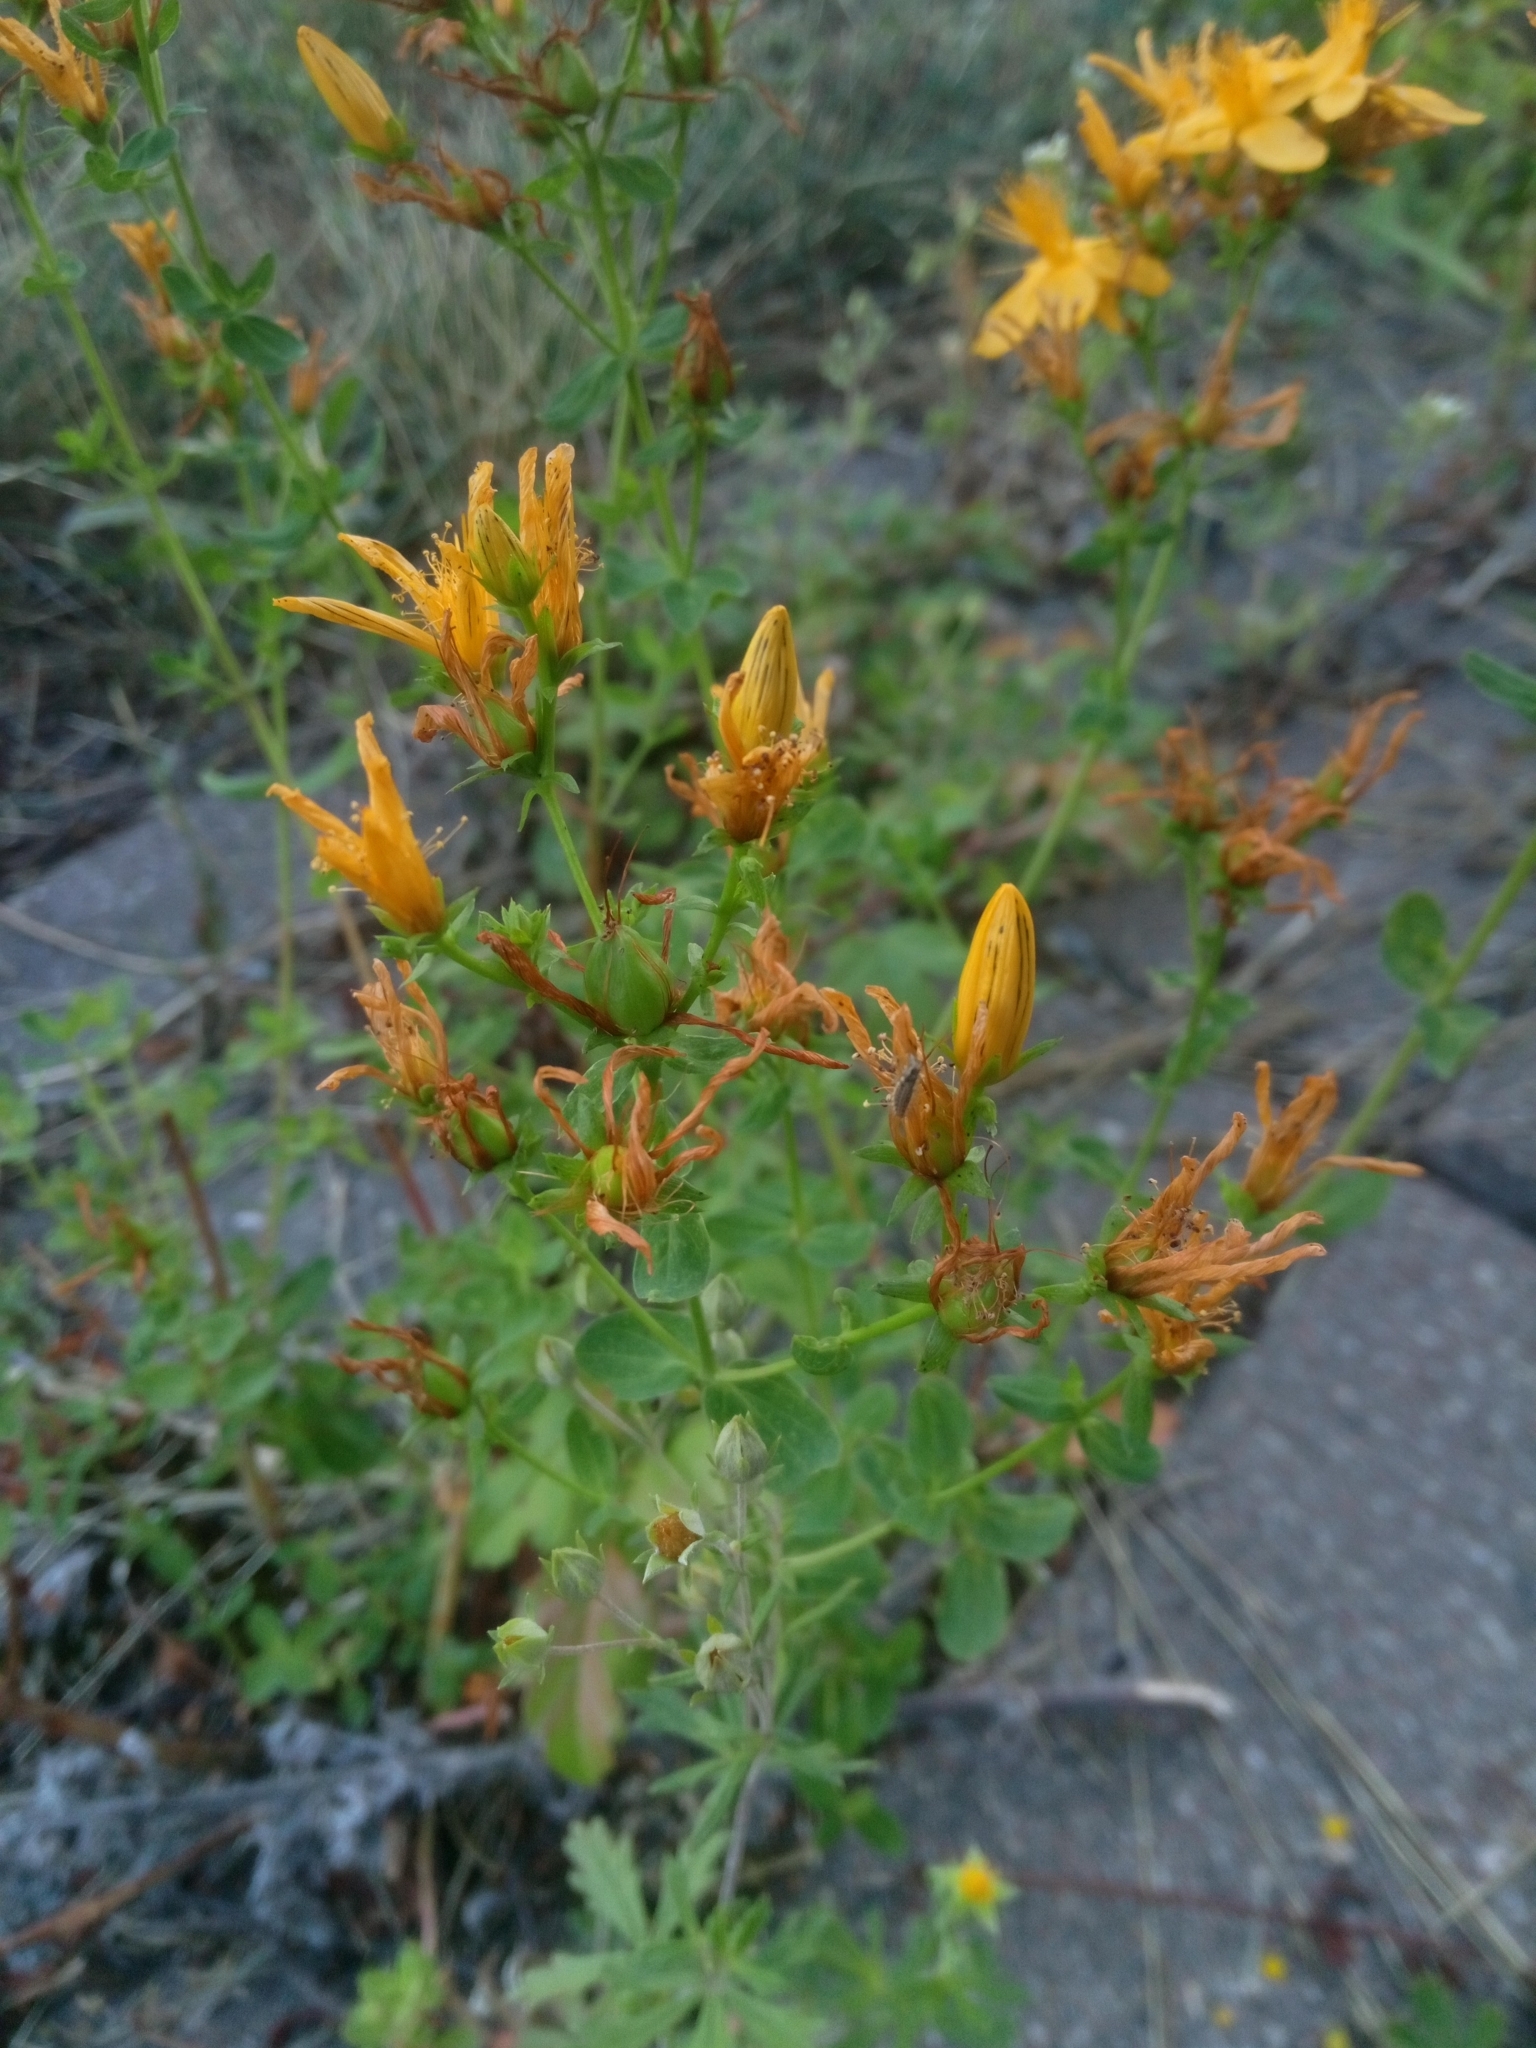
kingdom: Plantae
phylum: Tracheophyta
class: Magnoliopsida
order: Malpighiales
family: Hypericaceae
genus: Hypericum
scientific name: Hypericum perforatum
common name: Common st. johnswort
